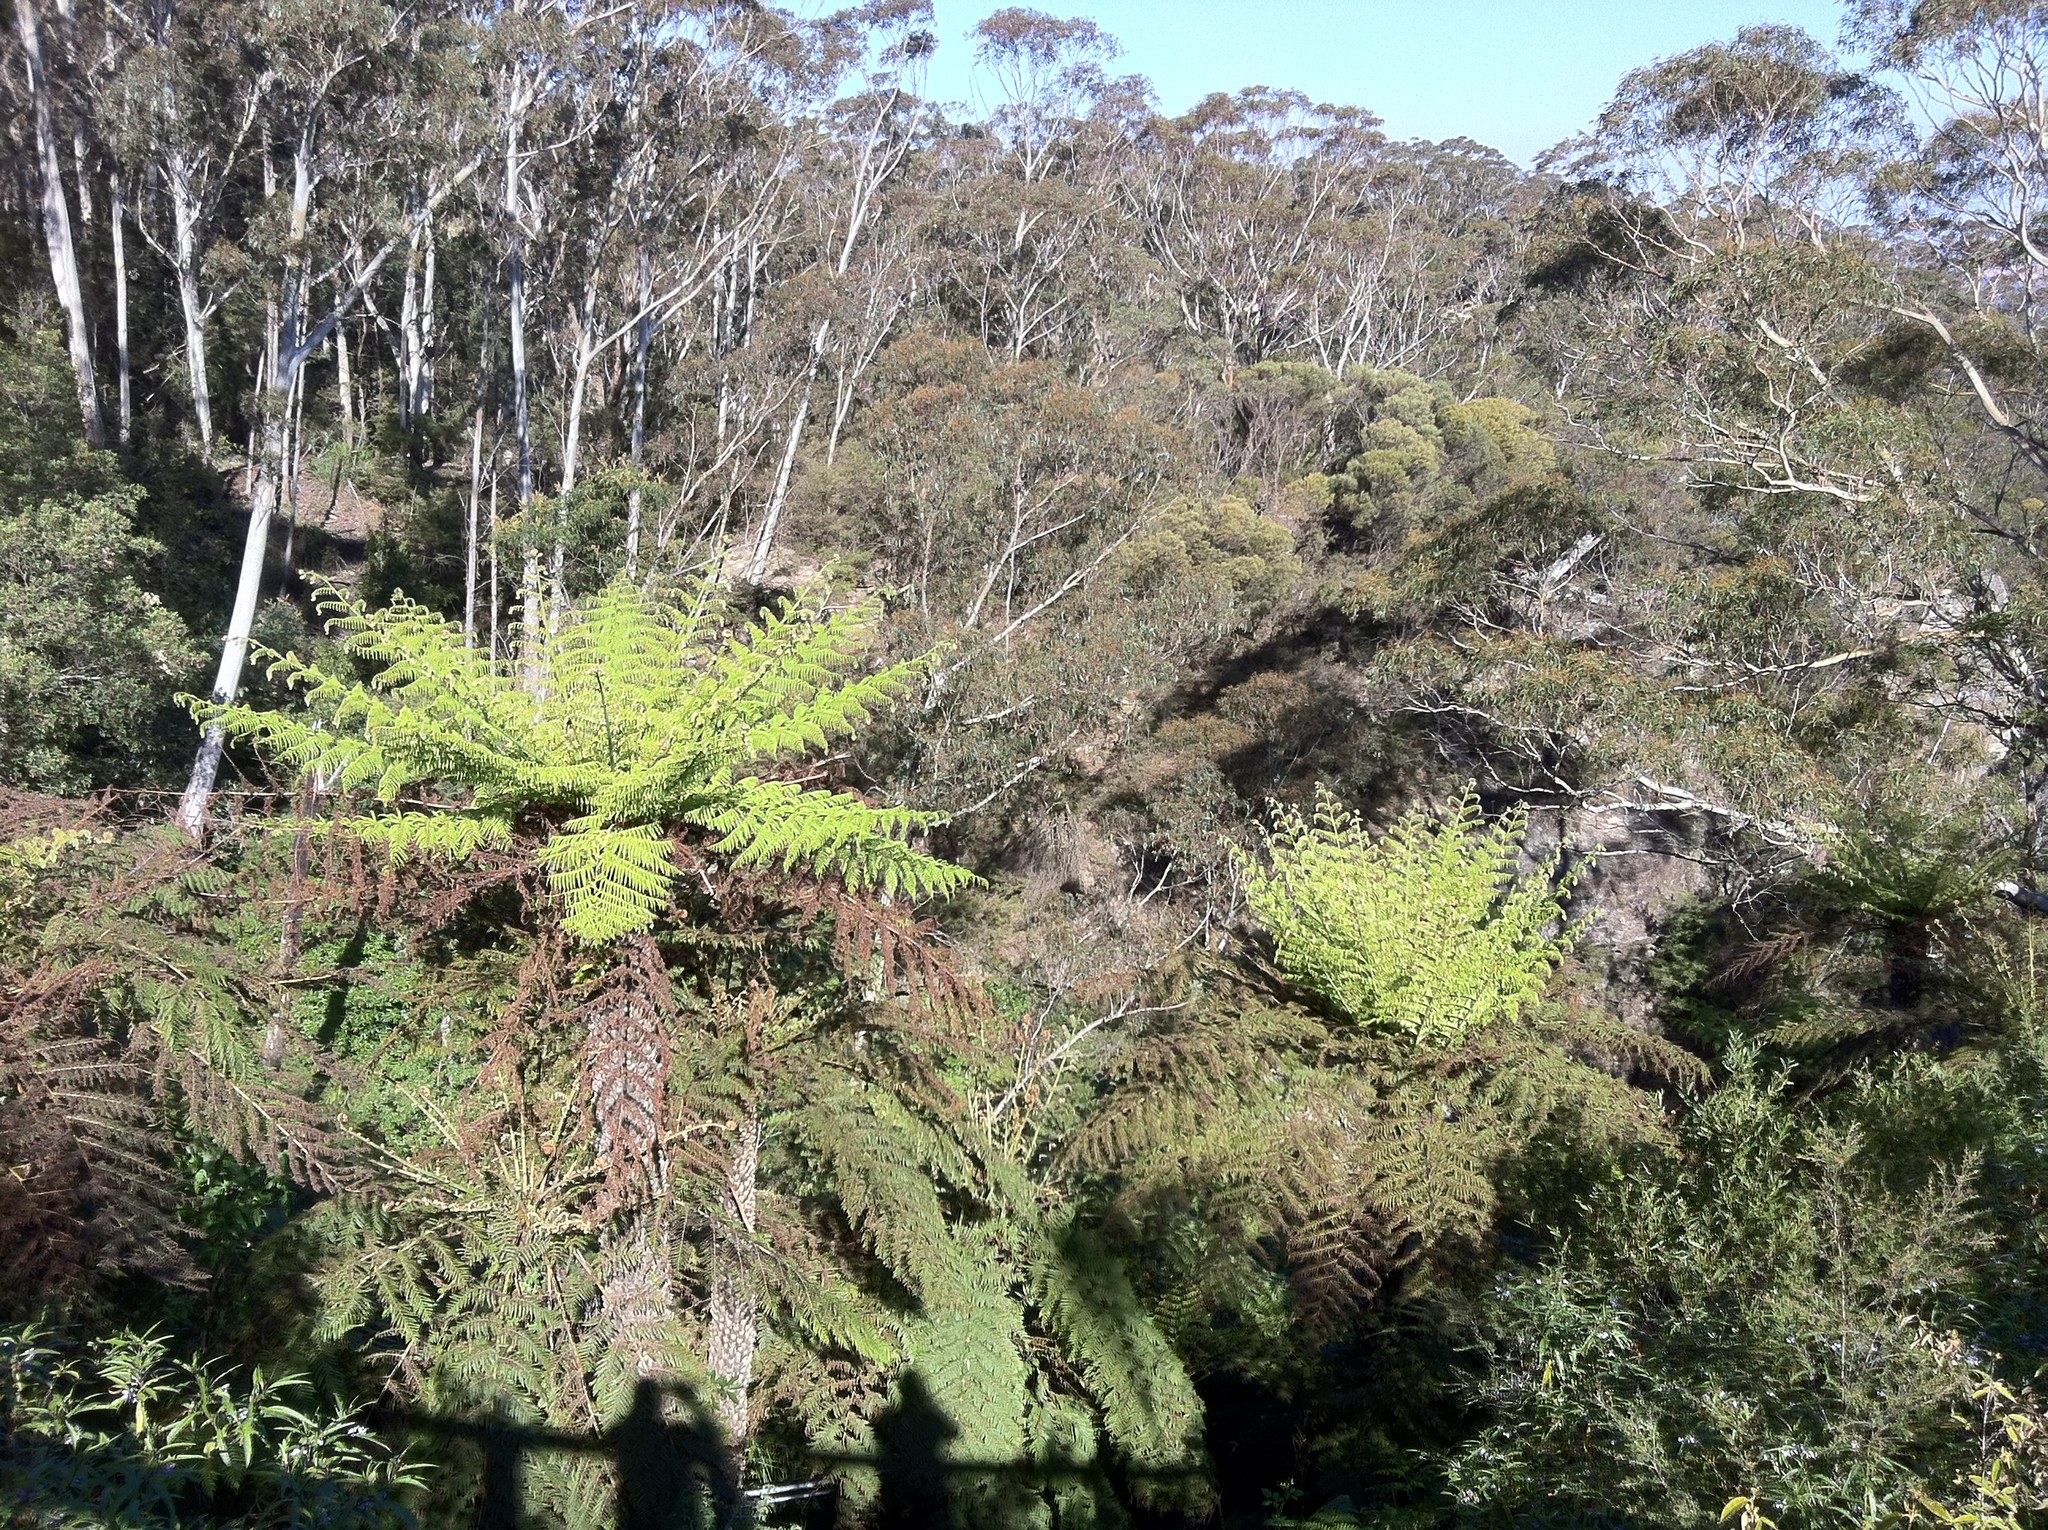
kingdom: Plantae
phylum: Tracheophyta
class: Polypodiopsida
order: Cyatheales
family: Cyatheaceae
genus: Alsophila
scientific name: Alsophila australis
